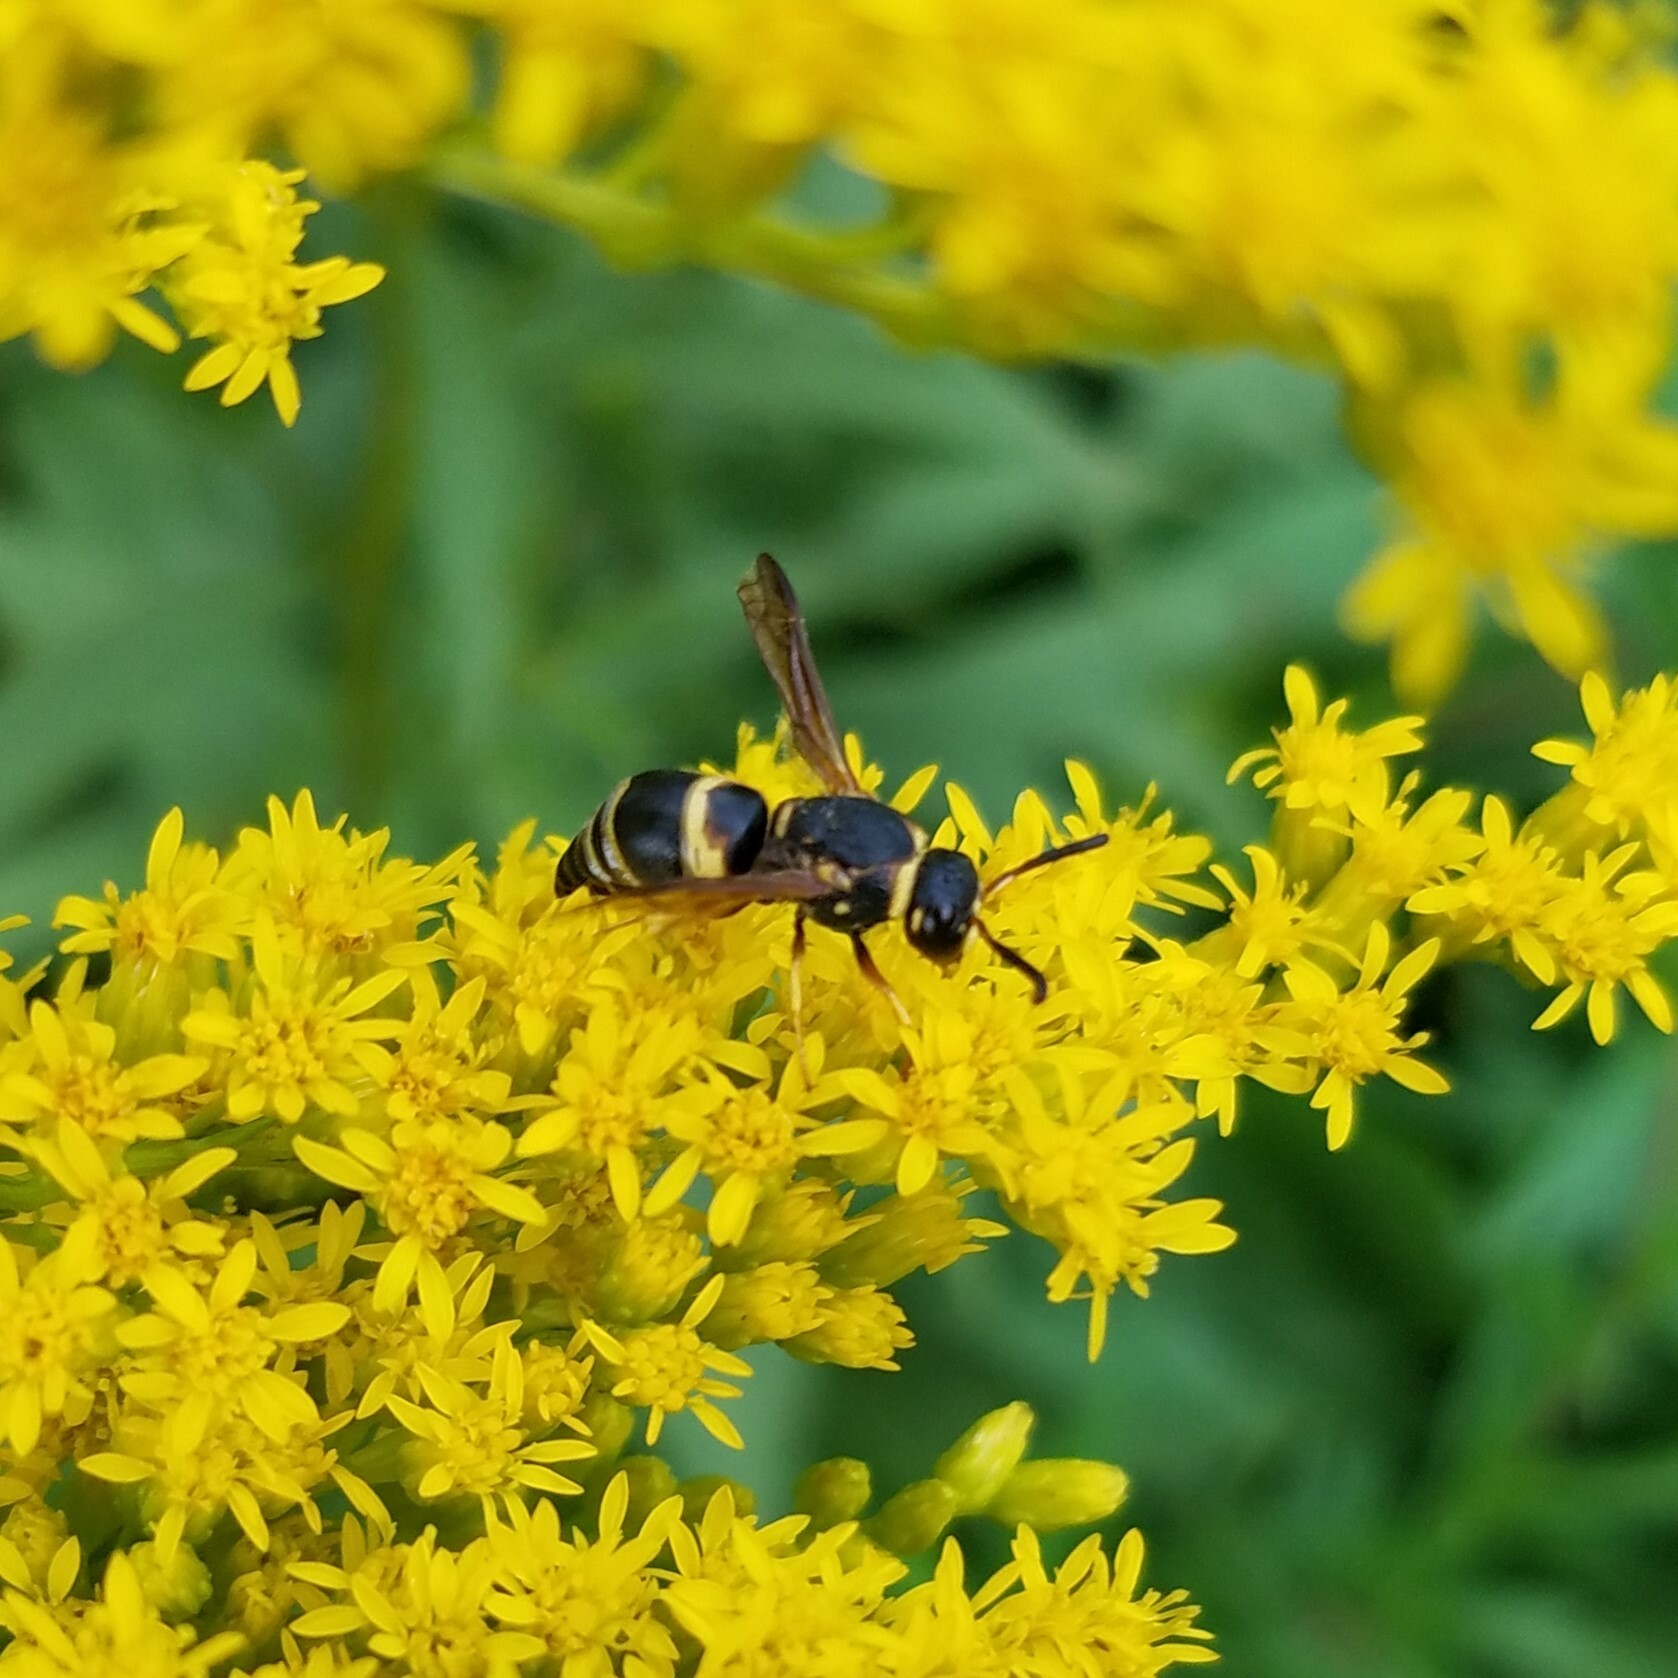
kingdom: Animalia
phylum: Arthropoda
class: Insecta
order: Hymenoptera
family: Eumenidae
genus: Euodynerus
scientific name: Euodynerus hidalgo
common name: Wasp
